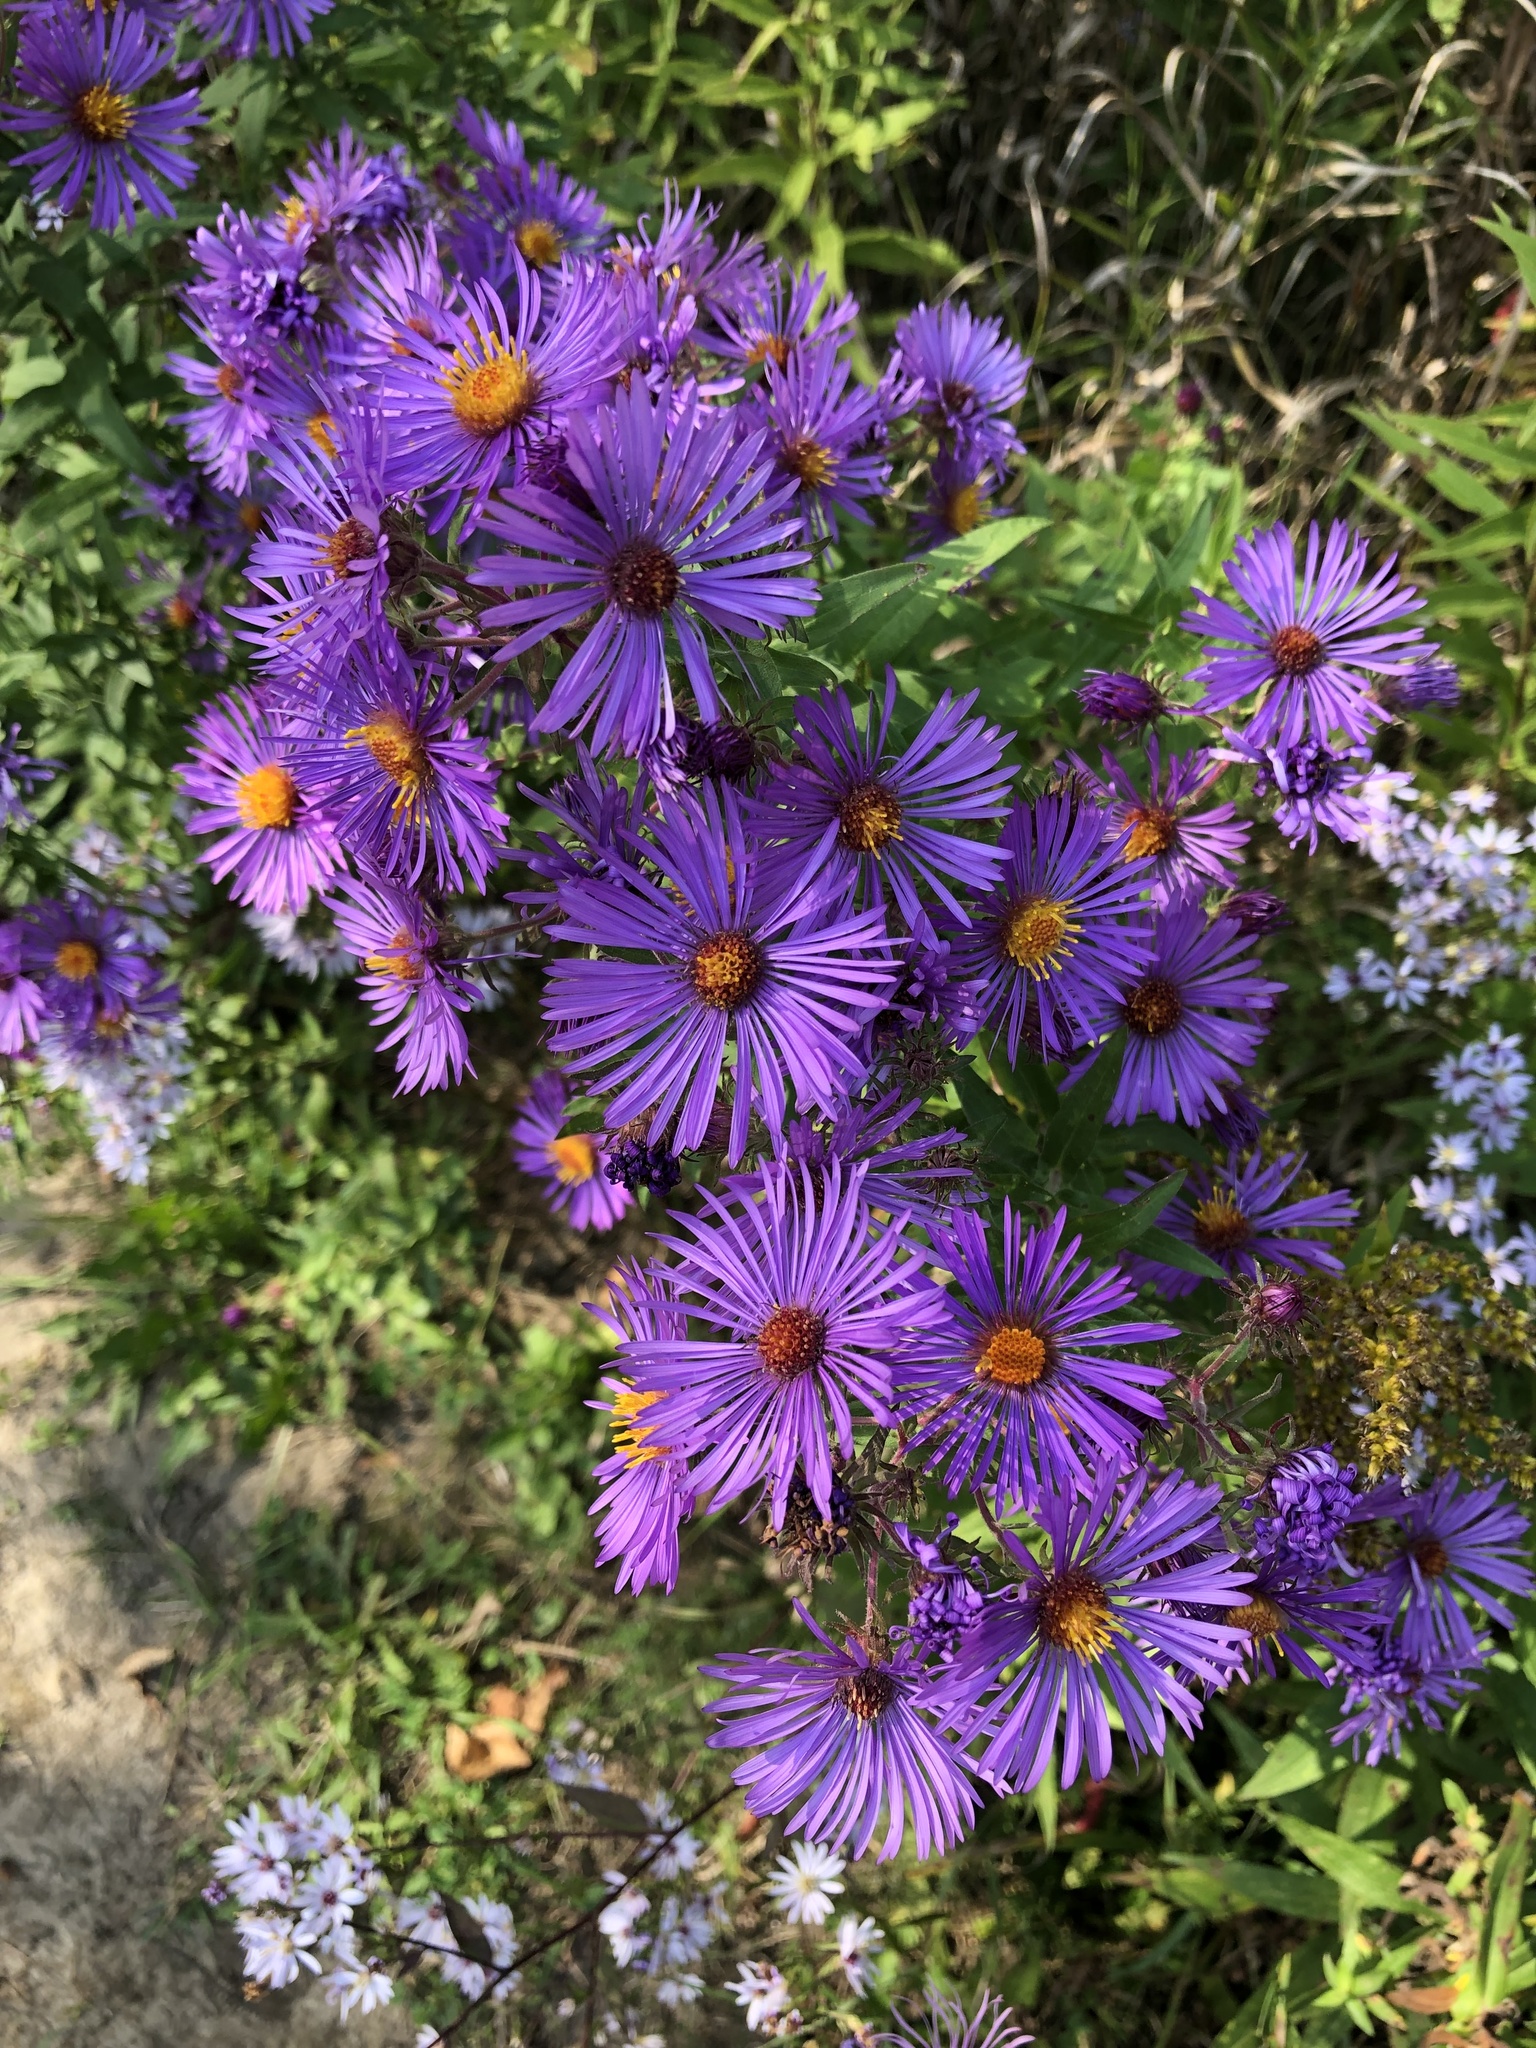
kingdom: Plantae
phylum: Tracheophyta
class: Magnoliopsida
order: Asterales
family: Asteraceae
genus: Symphyotrichum
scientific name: Symphyotrichum novae-angliae
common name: Michaelmas daisy
